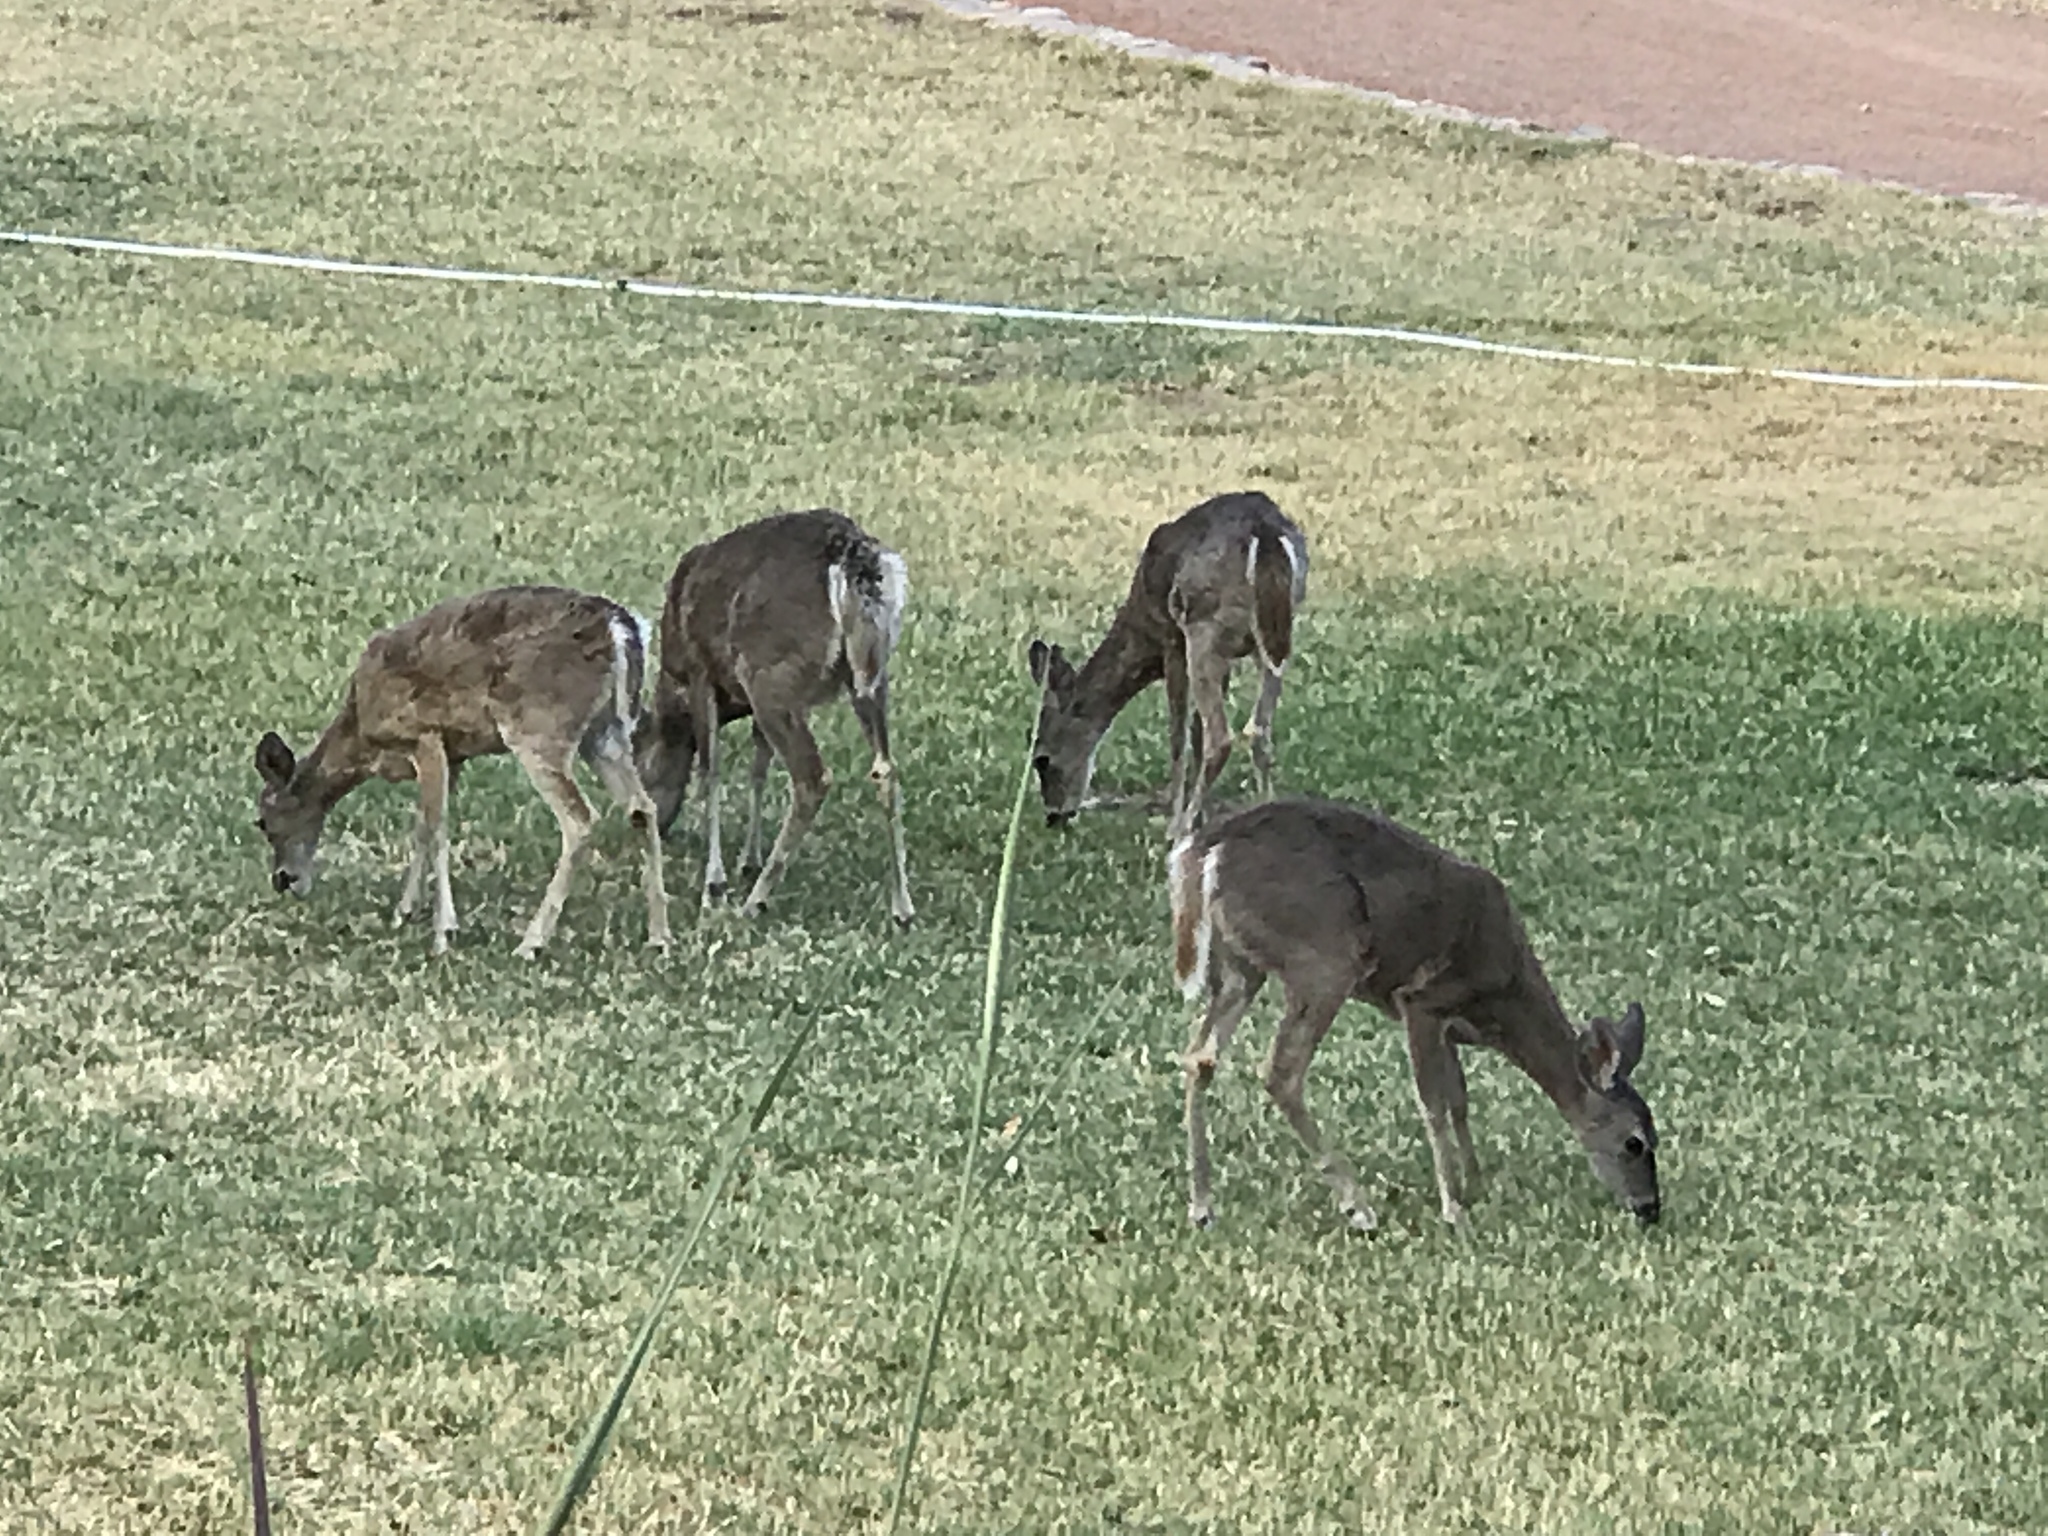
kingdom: Animalia
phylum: Chordata
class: Mammalia
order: Artiodactyla
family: Cervidae
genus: Odocoileus
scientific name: Odocoileus virginianus
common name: White-tailed deer
